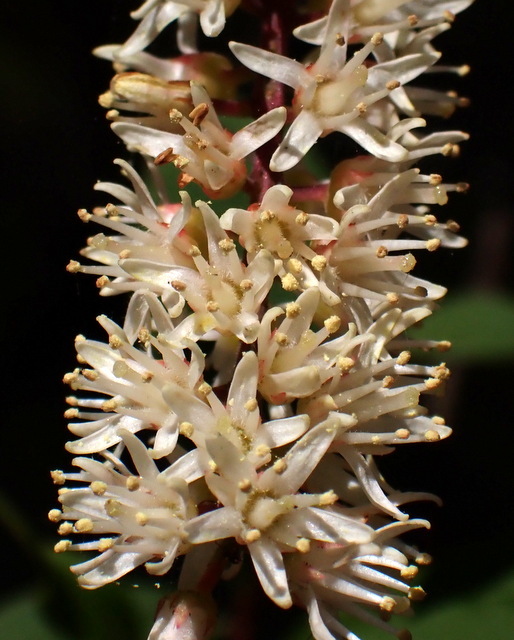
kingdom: Plantae
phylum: Tracheophyta
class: Magnoliopsida
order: Saxifragales
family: Iteaceae
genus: Itea
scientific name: Itea virginica
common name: Sweetspire
